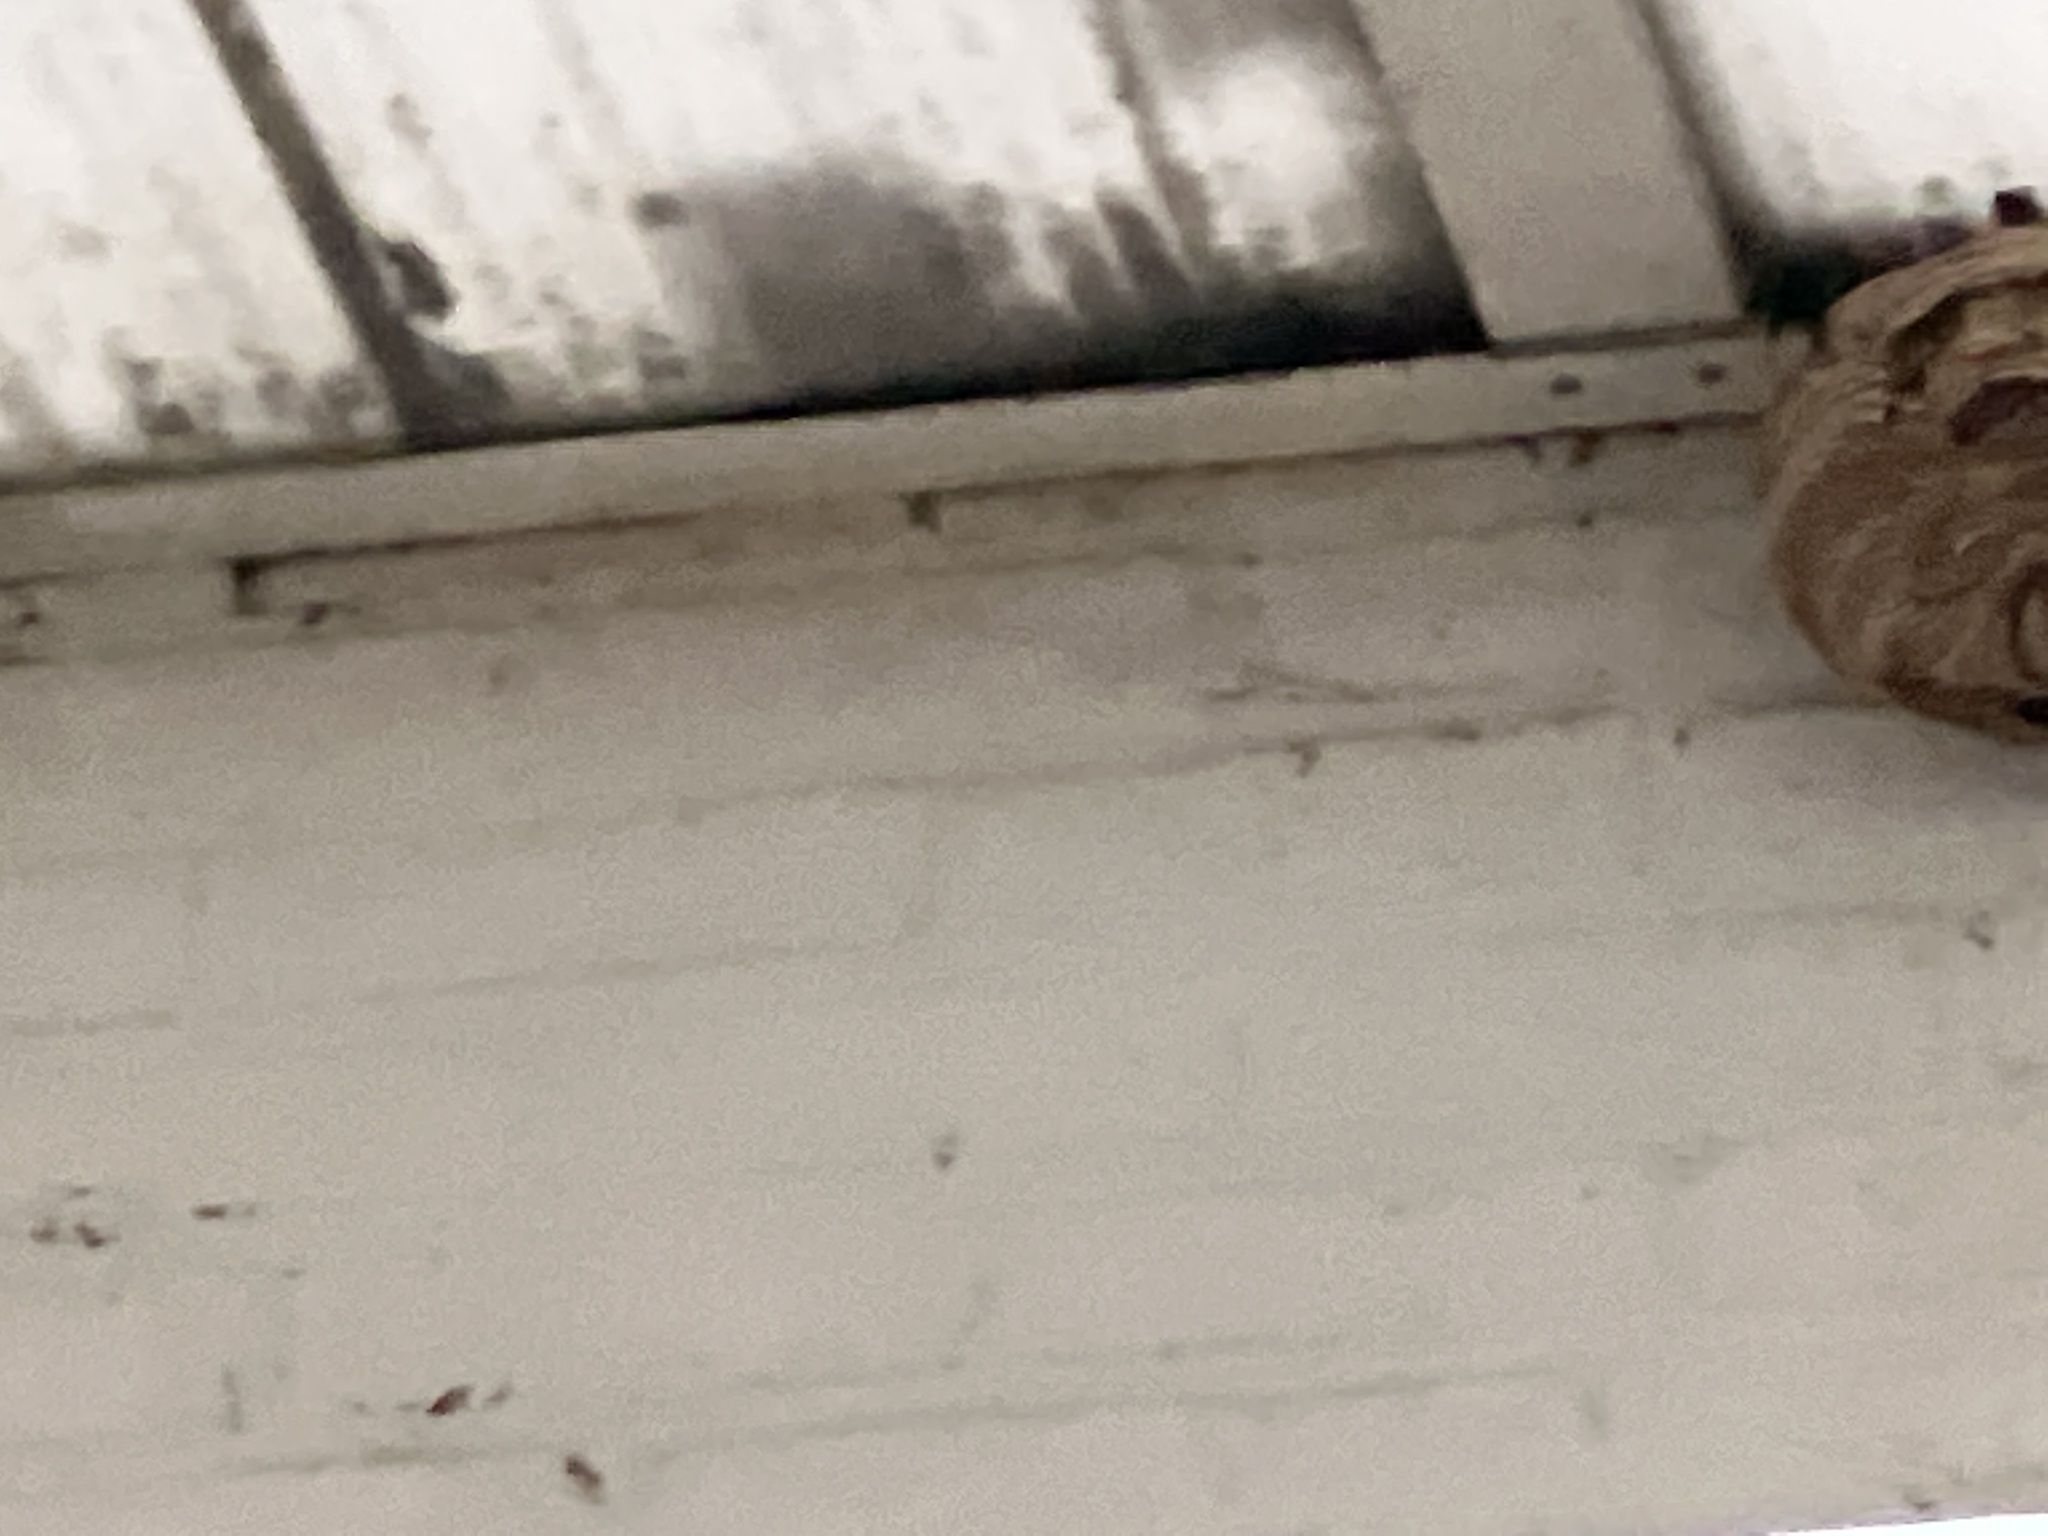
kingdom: Animalia
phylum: Arthropoda
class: Insecta
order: Hymenoptera
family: Vespidae
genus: Vespa
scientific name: Vespa velutina
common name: Asian hornet
